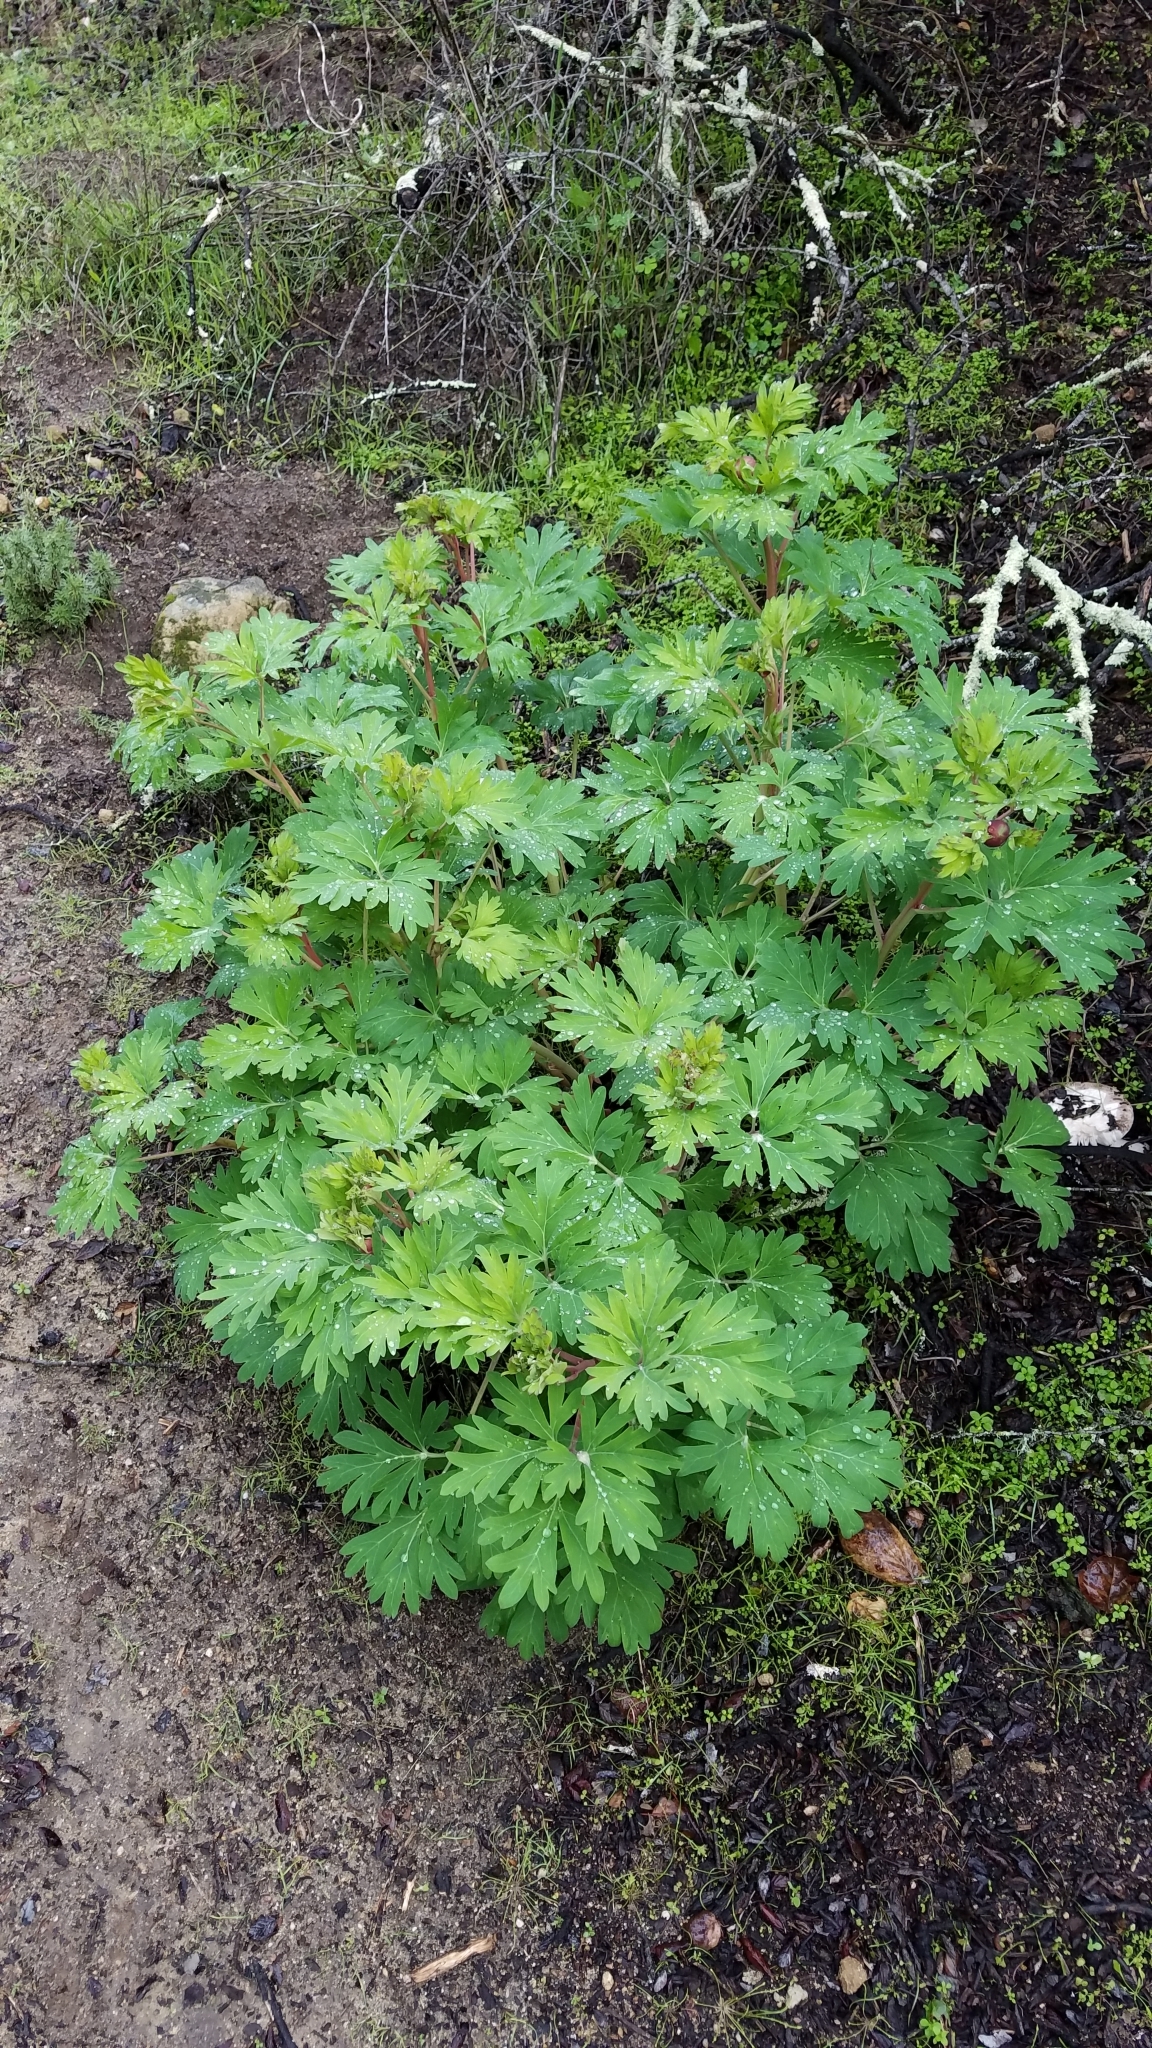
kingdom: Plantae
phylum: Tracheophyta
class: Magnoliopsida
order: Saxifragales
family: Paeoniaceae
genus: Paeonia
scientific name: Paeonia californica
